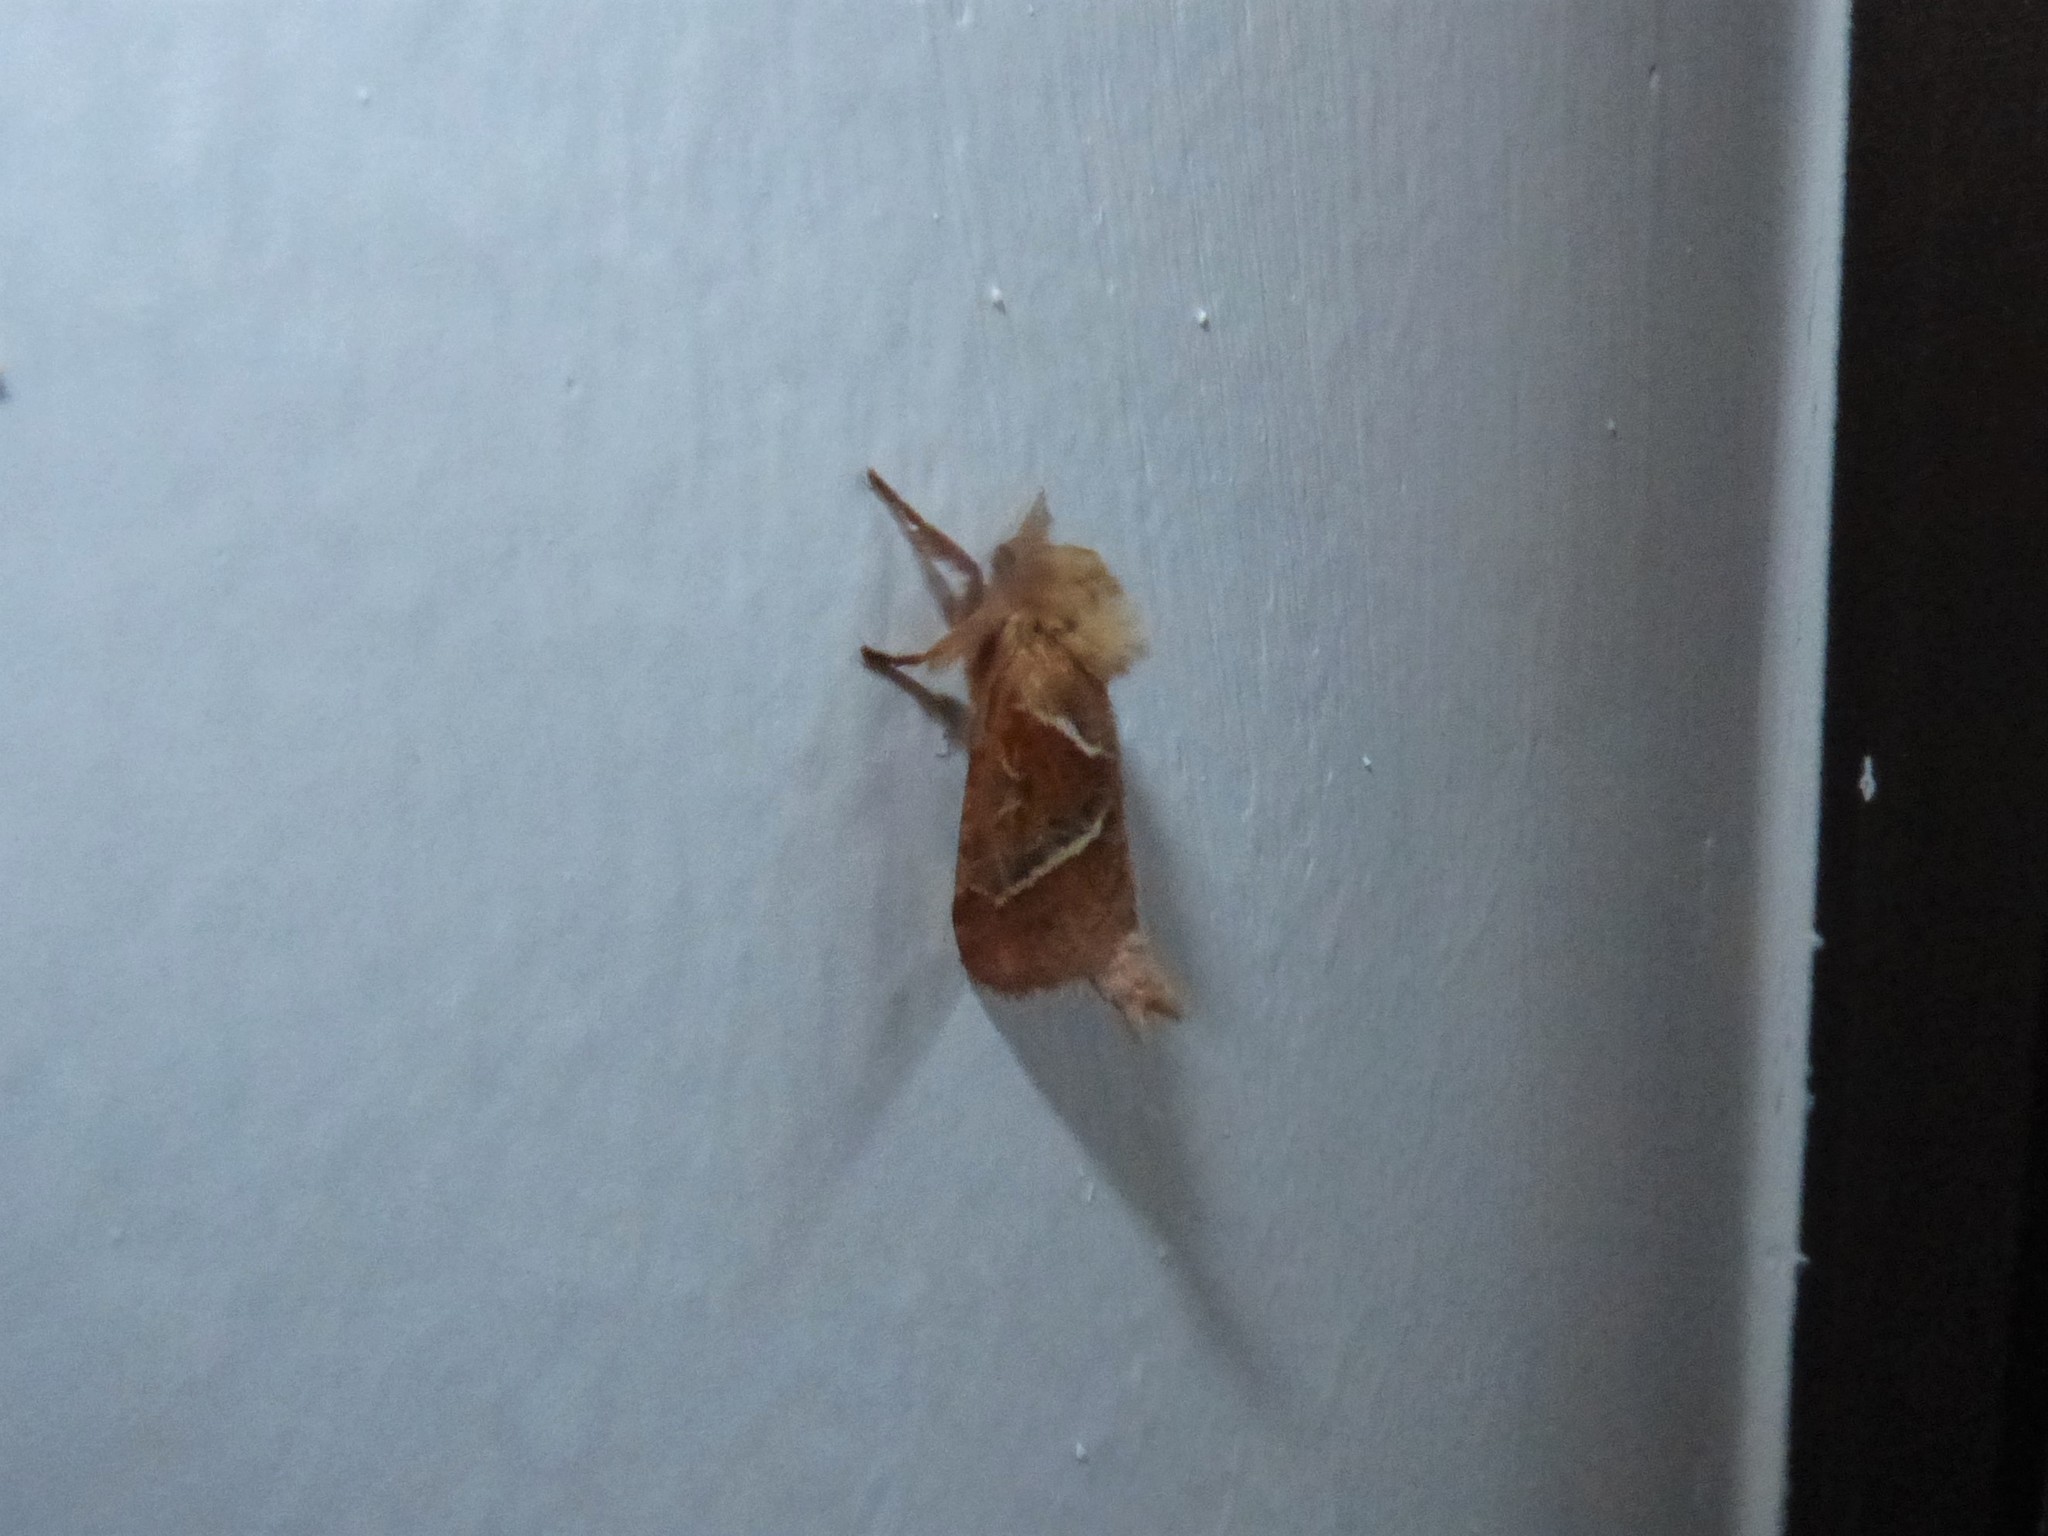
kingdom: Animalia
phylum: Arthropoda
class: Insecta
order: Lepidoptera
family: Hepialidae
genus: Triodia
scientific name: Triodia sylvina
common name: Orange swift
